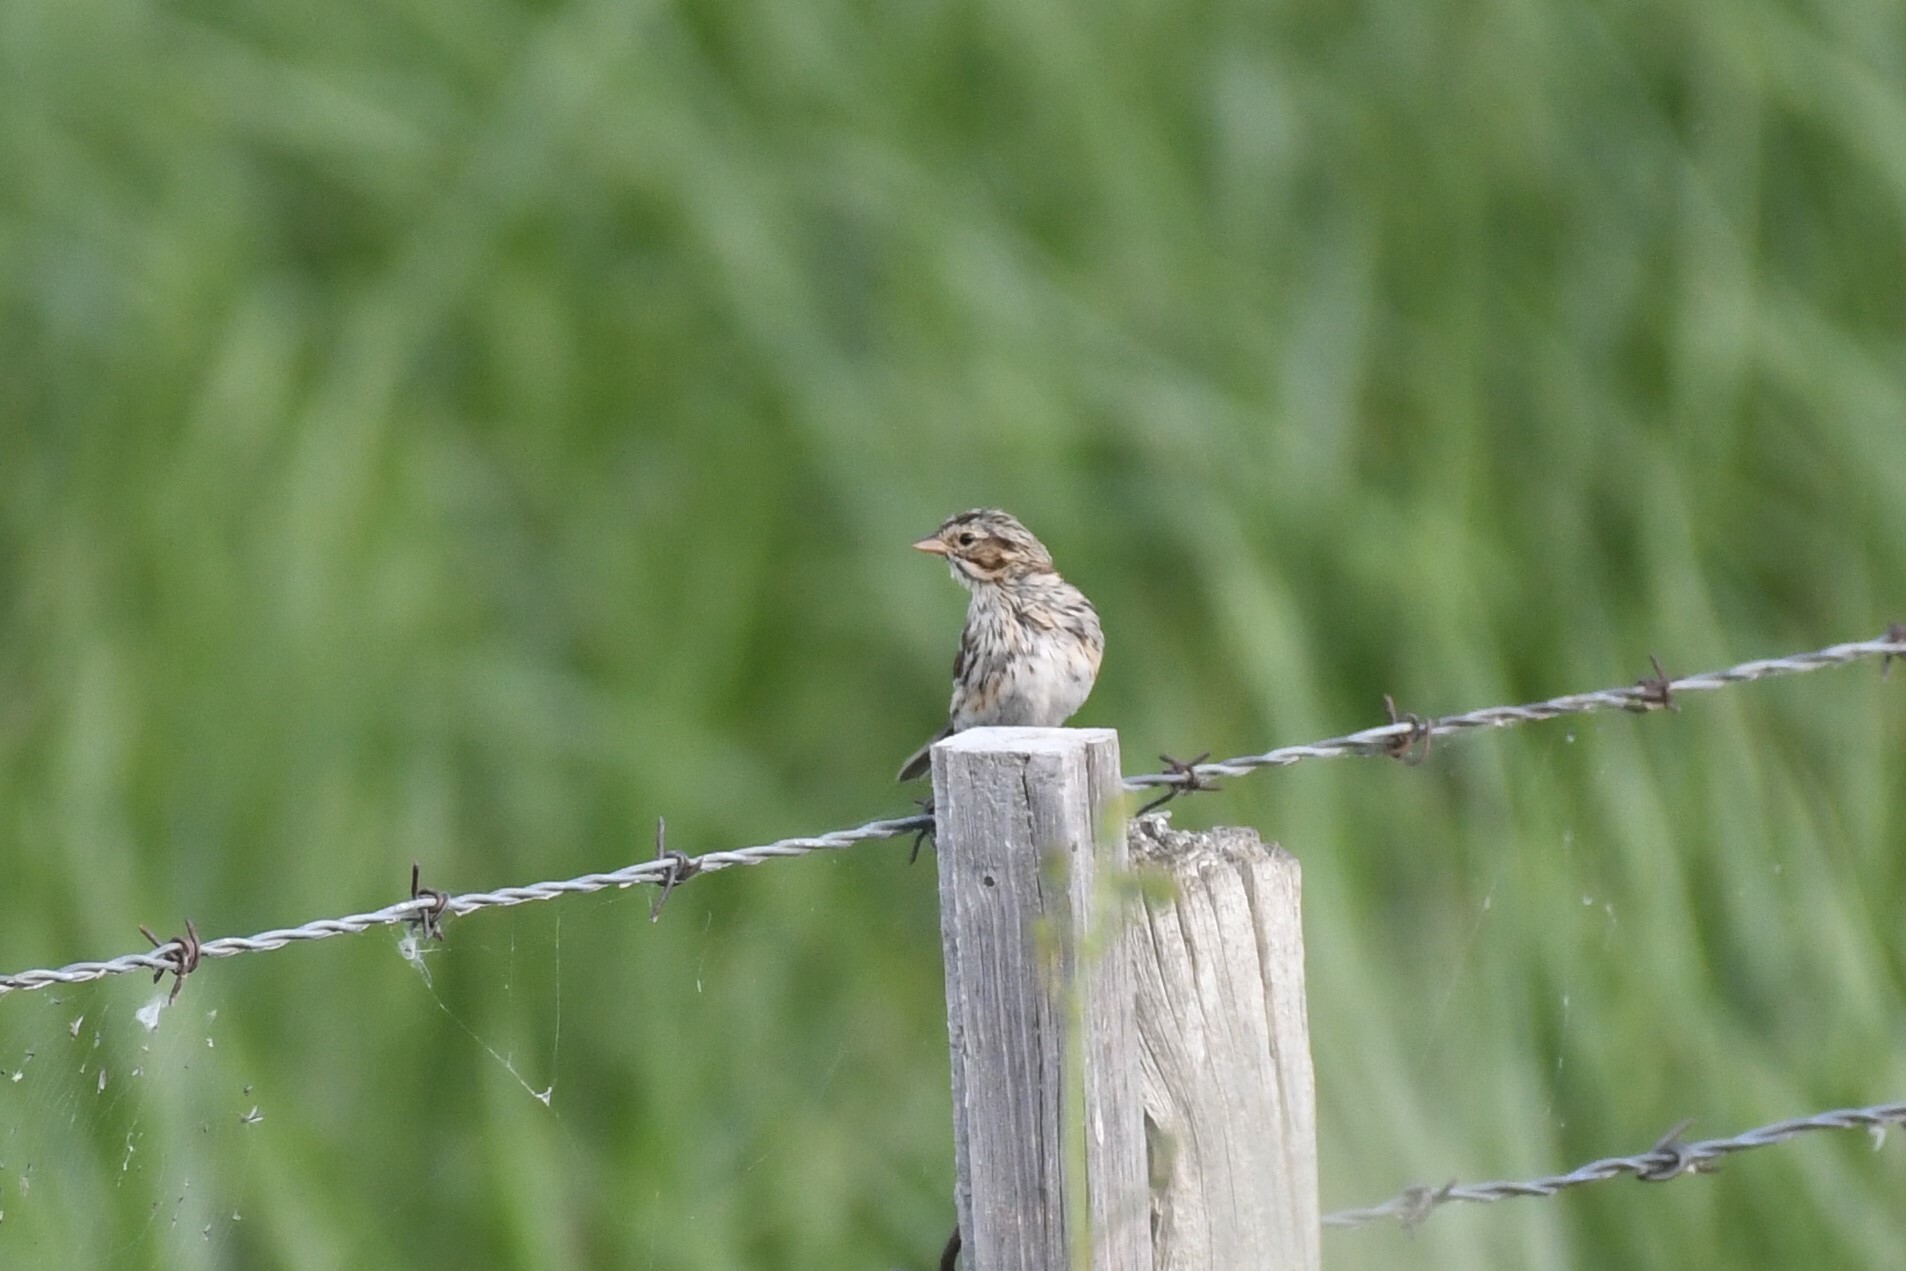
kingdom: Animalia
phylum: Chordata
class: Aves
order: Passeriformes
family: Passerellidae
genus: Passerculus
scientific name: Passerculus sandwichensis
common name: Savannah sparrow
